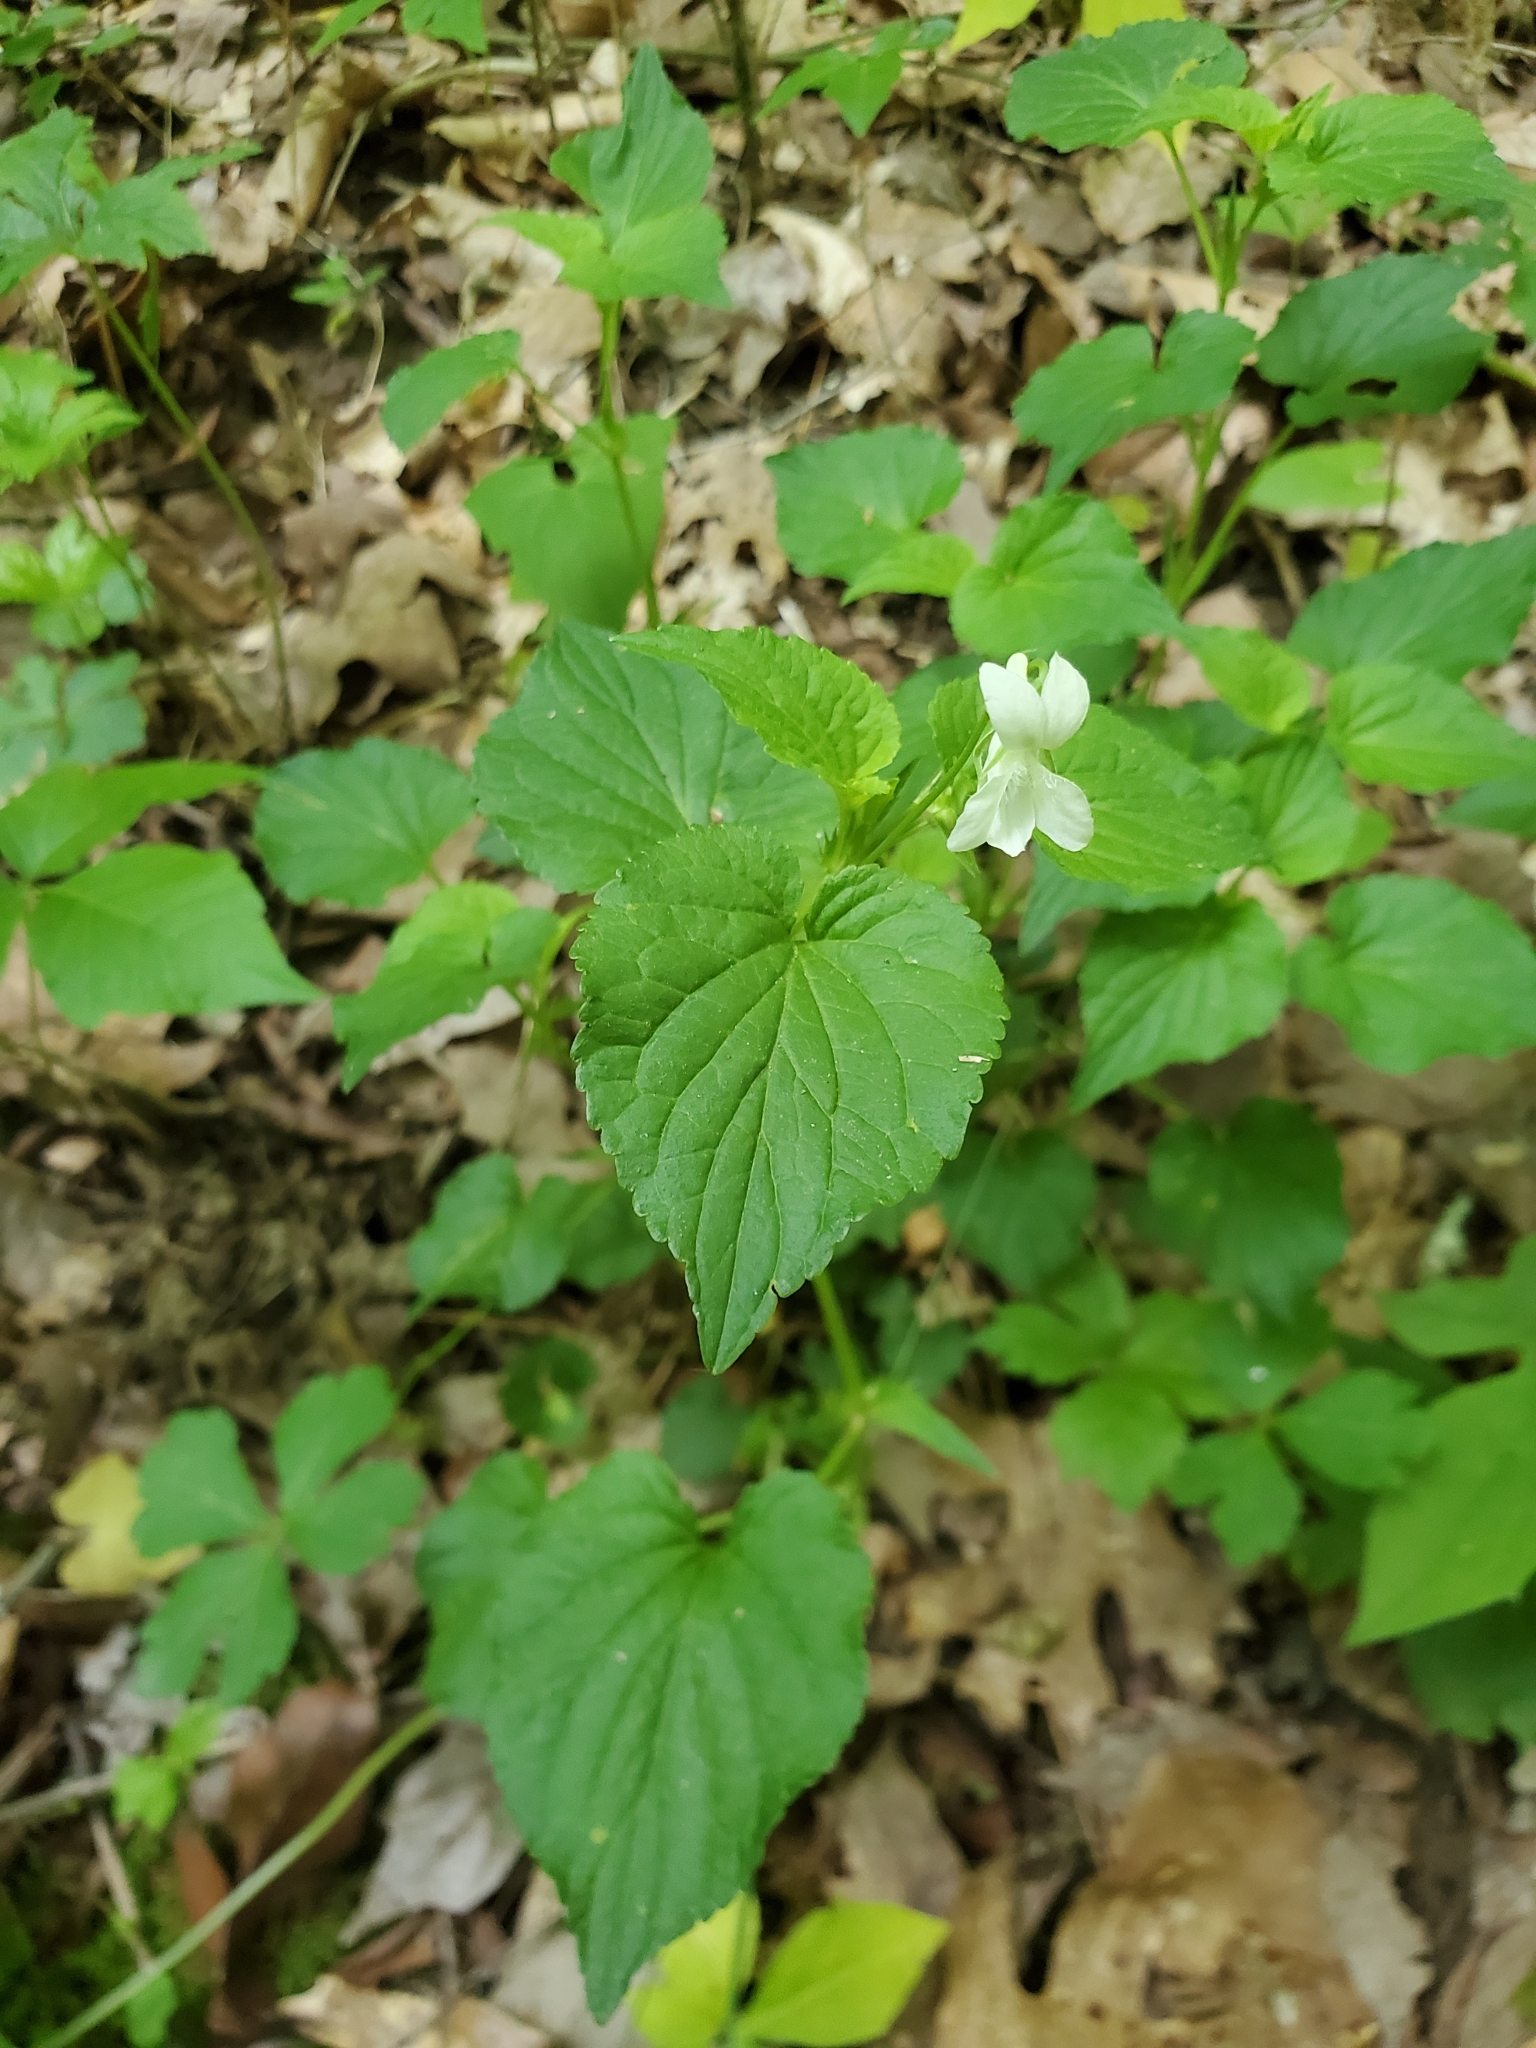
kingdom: Plantae
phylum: Tracheophyta
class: Magnoliopsida
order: Malpighiales
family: Violaceae
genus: Viola
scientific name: Viola striata
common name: Cream violet
